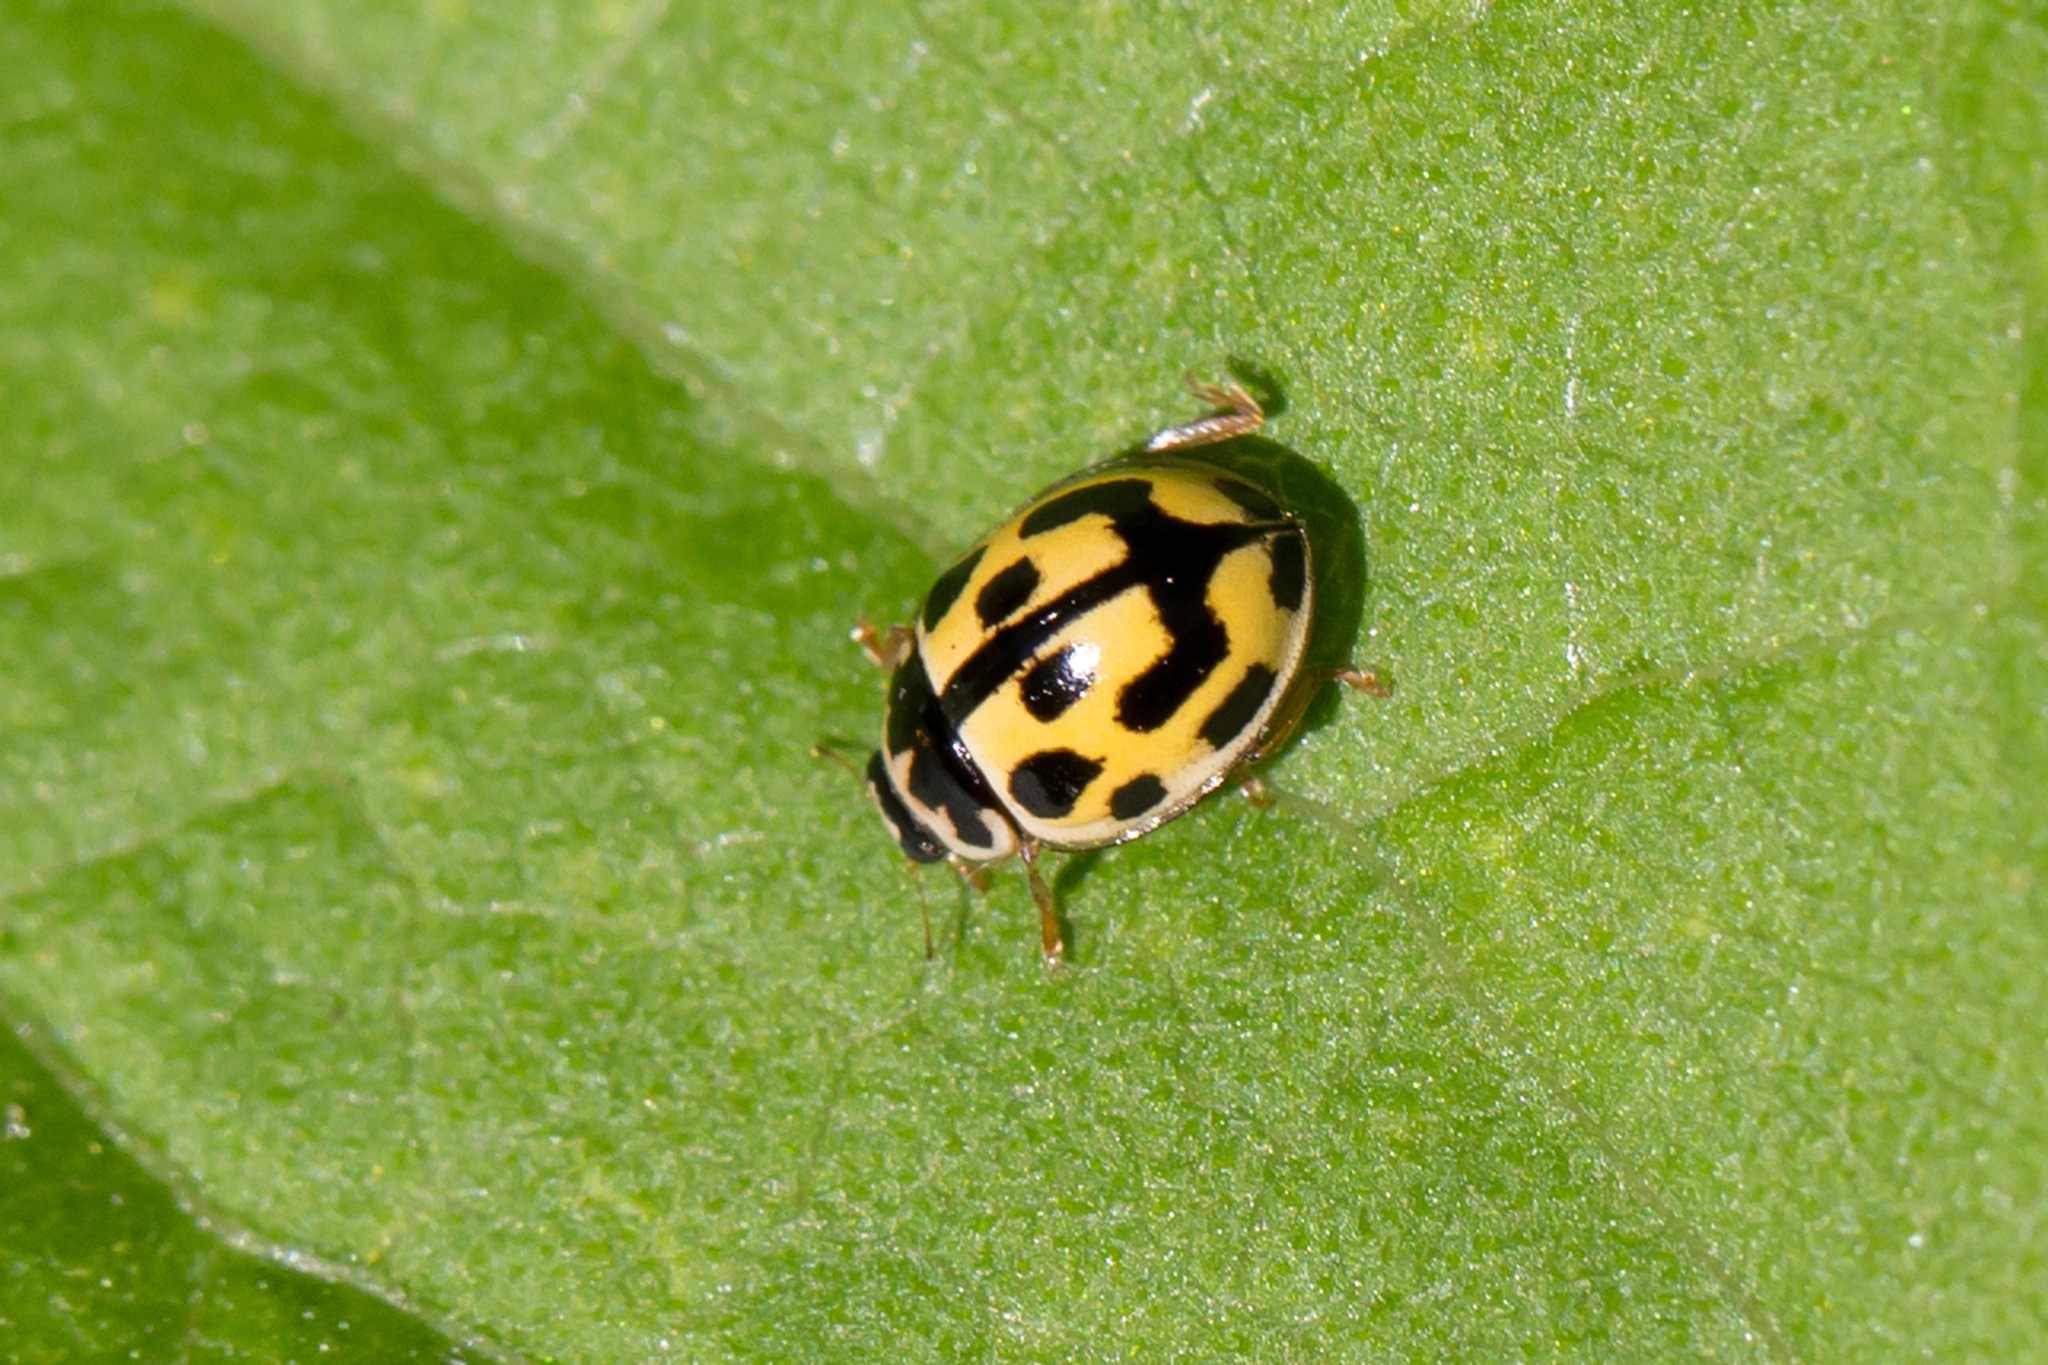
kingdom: Animalia
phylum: Arthropoda
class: Insecta
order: Coleoptera
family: Coccinellidae
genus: Propylaea
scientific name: Propylaea quatuordecimpunctata
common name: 14-spotted ladybird beetle
